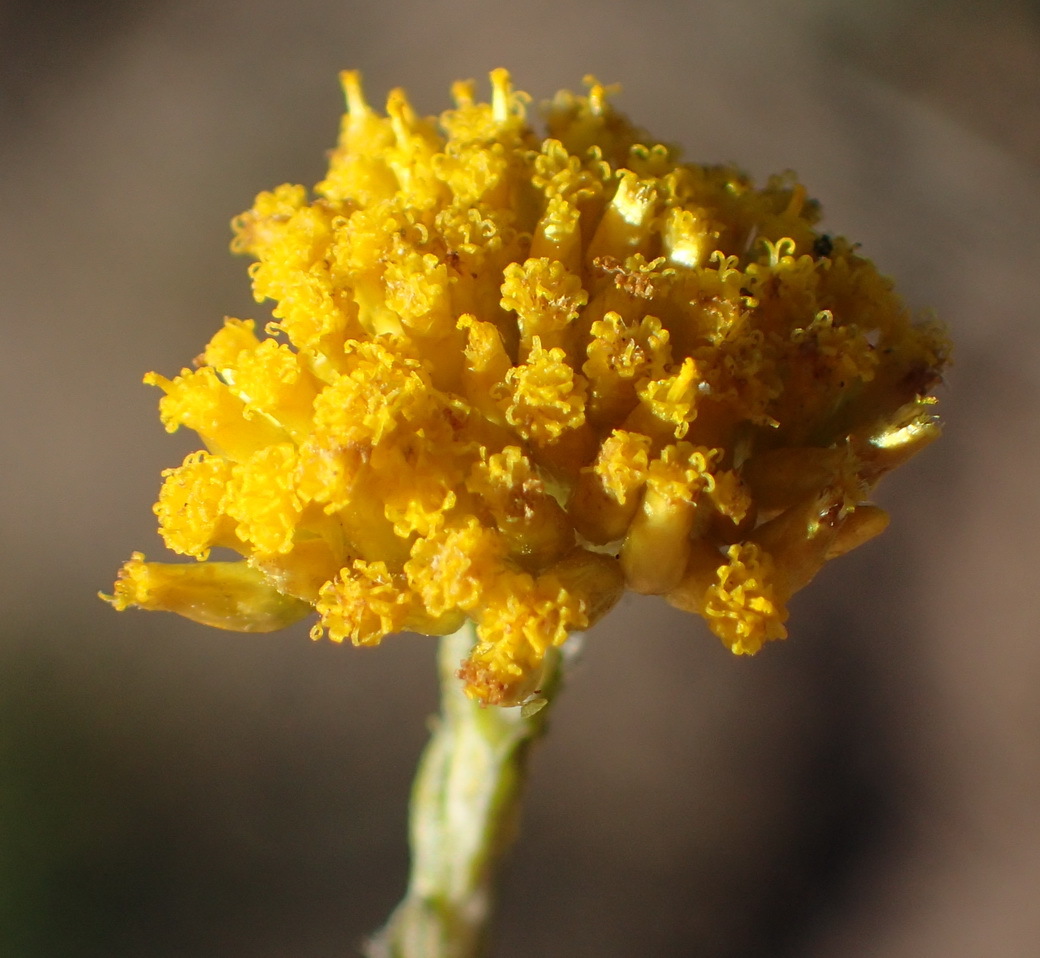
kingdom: Plantae
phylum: Tracheophyta
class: Magnoliopsida
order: Asterales
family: Asteraceae
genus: Helichrysum
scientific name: Helichrysum cymosum
